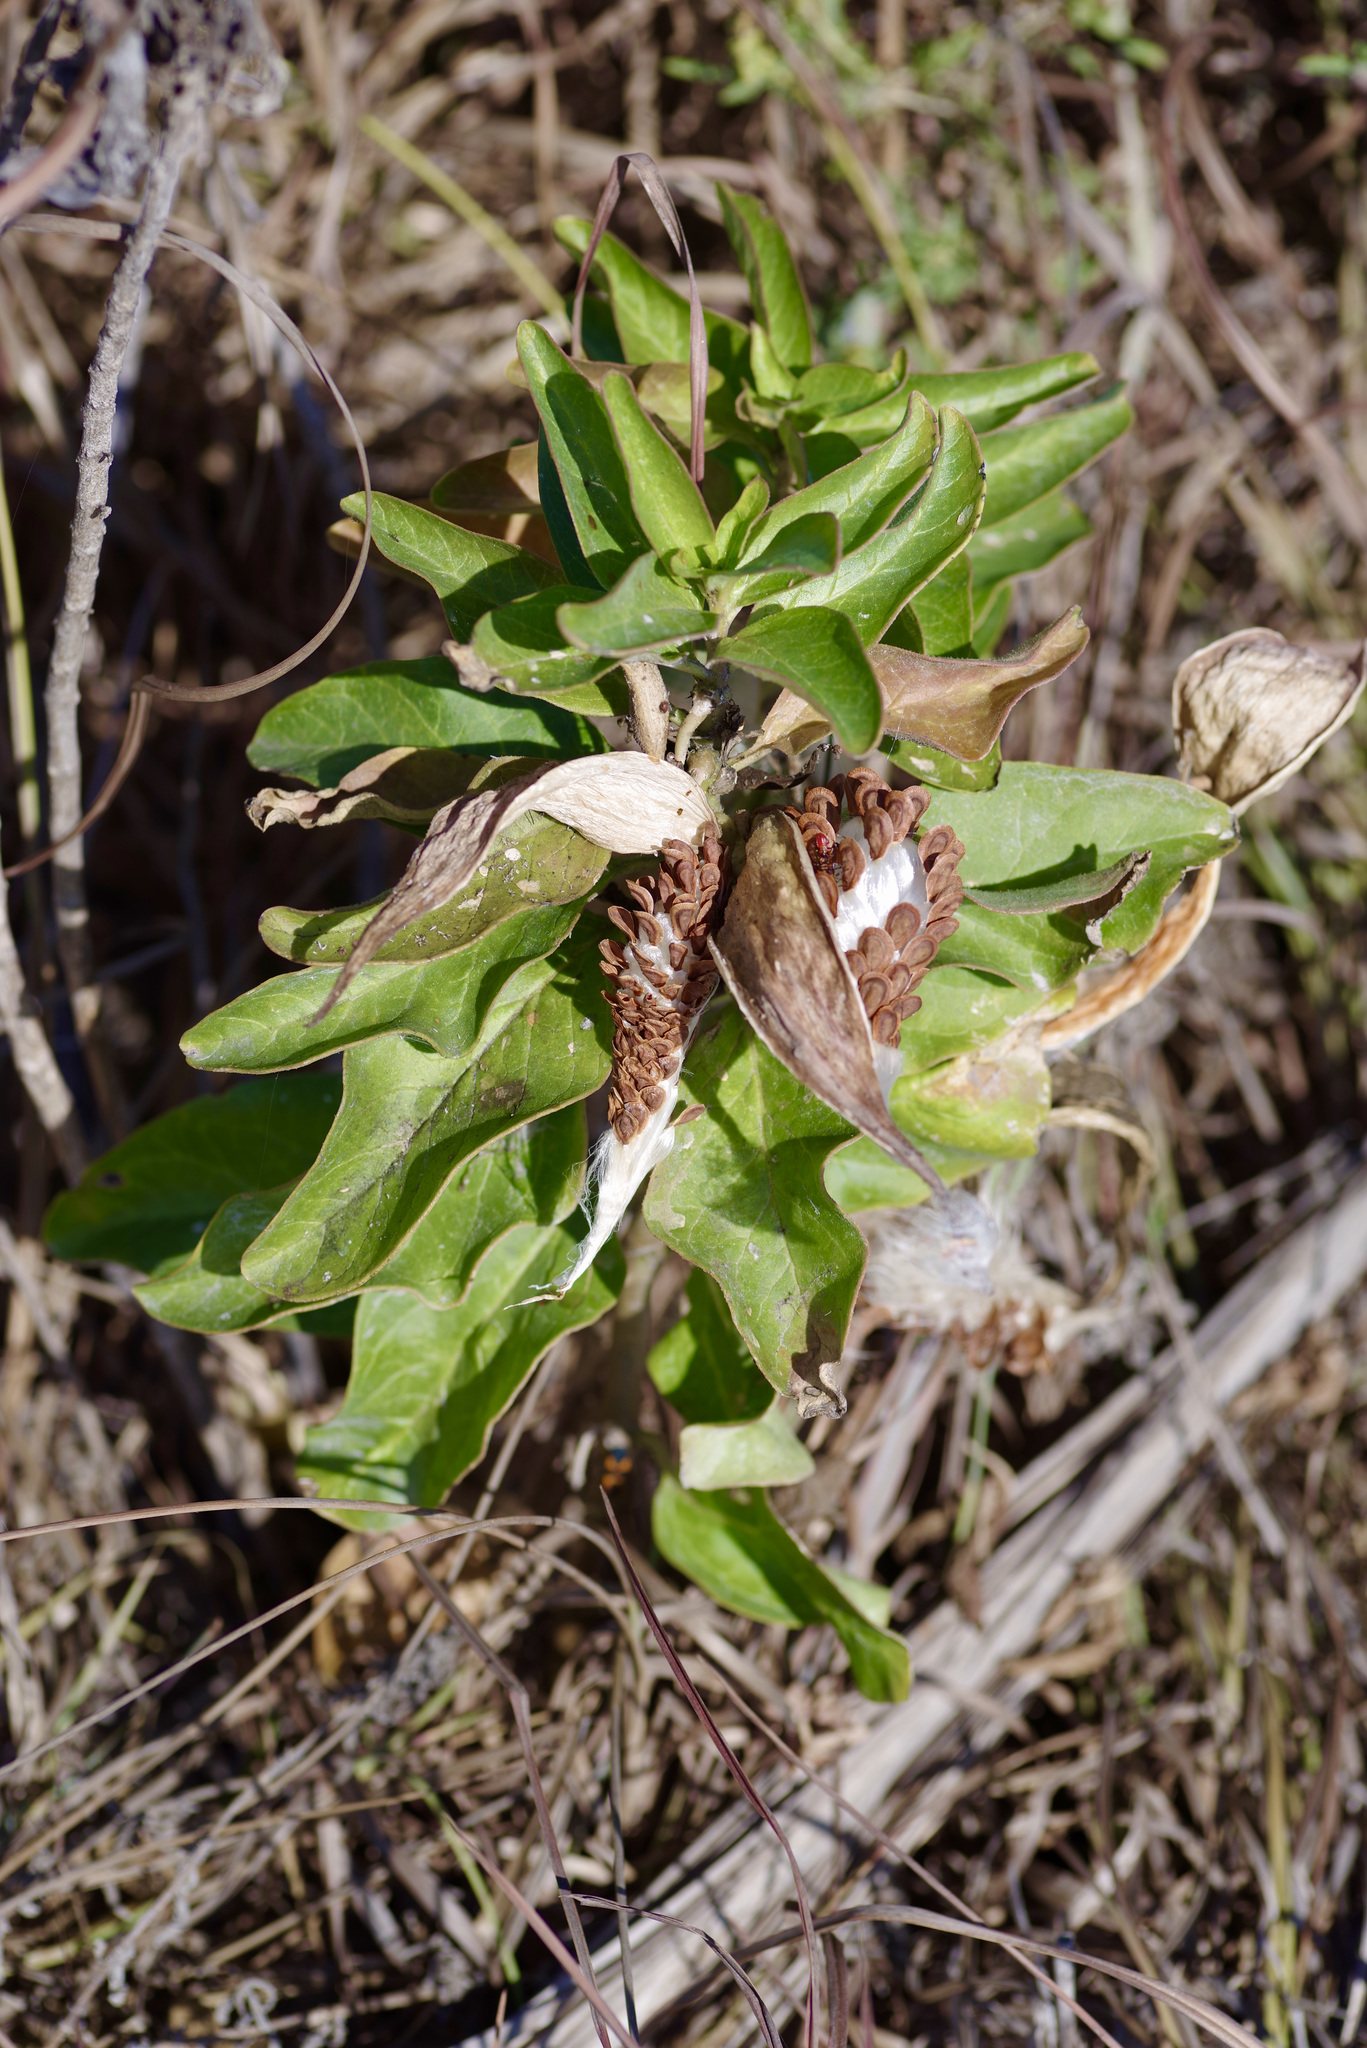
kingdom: Plantae
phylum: Tracheophyta
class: Magnoliopsida
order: Gentianales
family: Apocynaceae
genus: Asclepias
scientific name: Asclepias oenotheroides
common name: Zizotes milkweed
